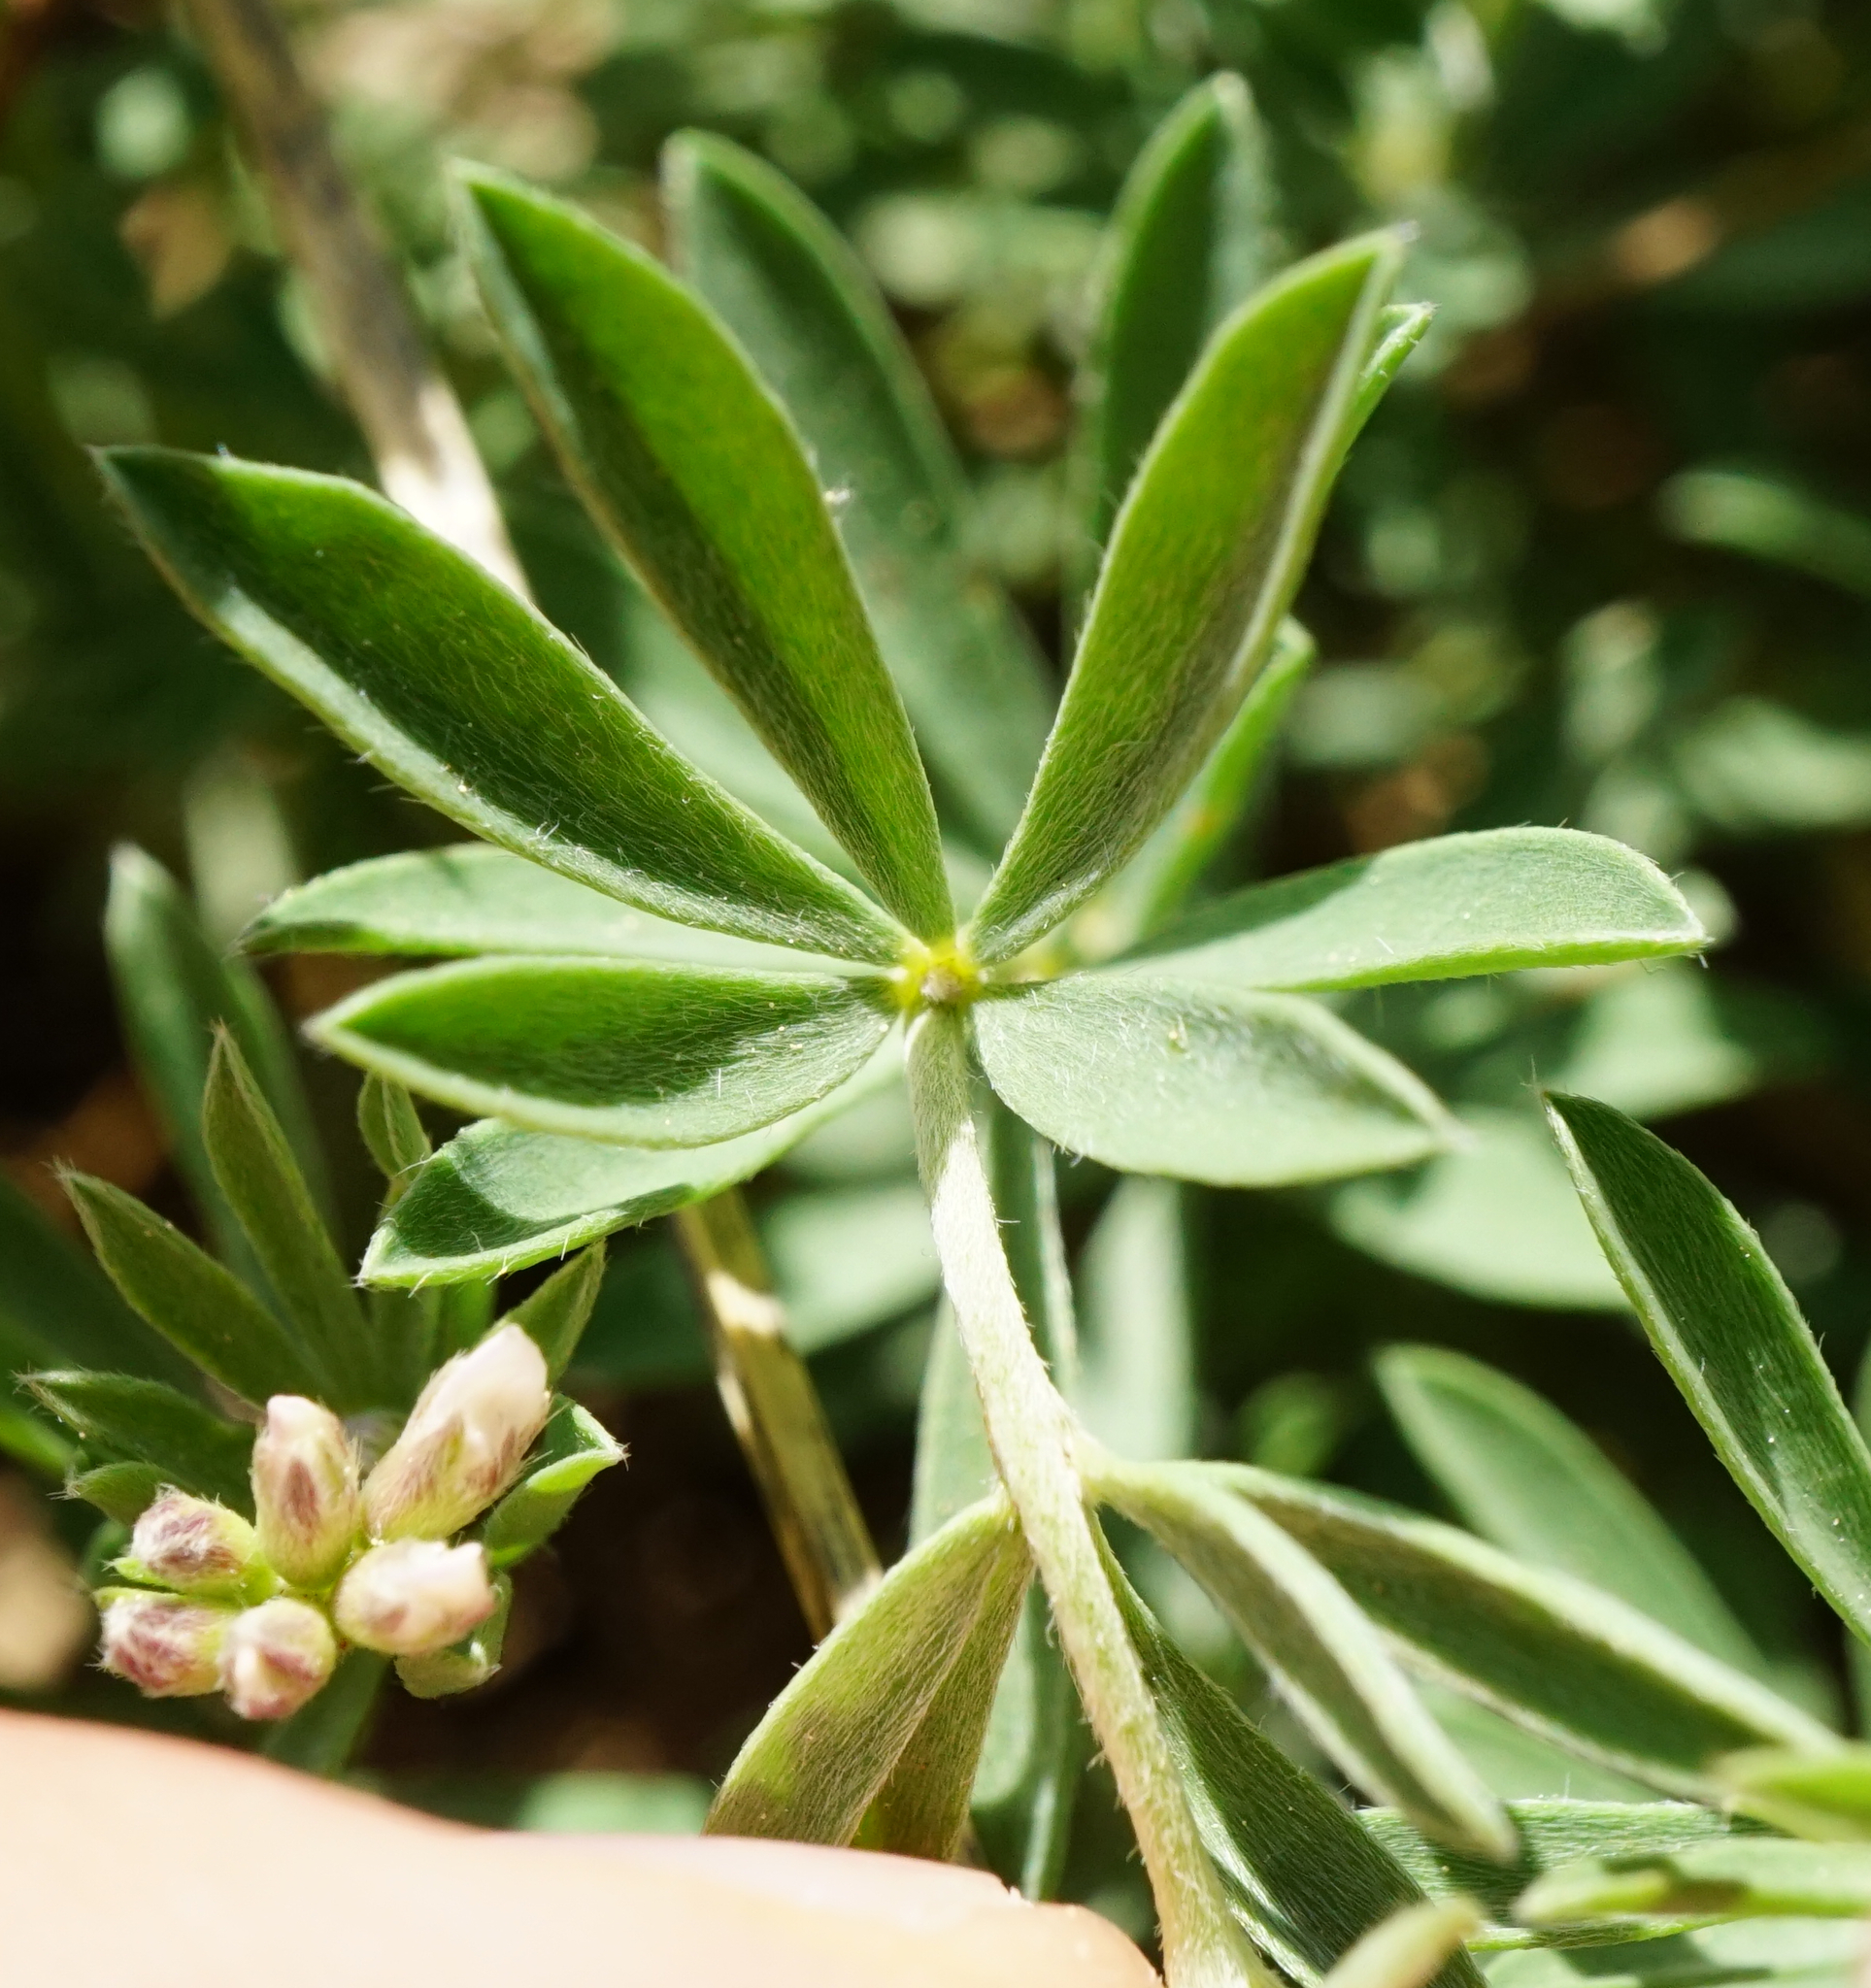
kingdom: Plantae
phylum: Tracheophyta
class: Magnoliopsida
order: Fabales
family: Fabaceae
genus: Lotus
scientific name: Lotus germanicus
